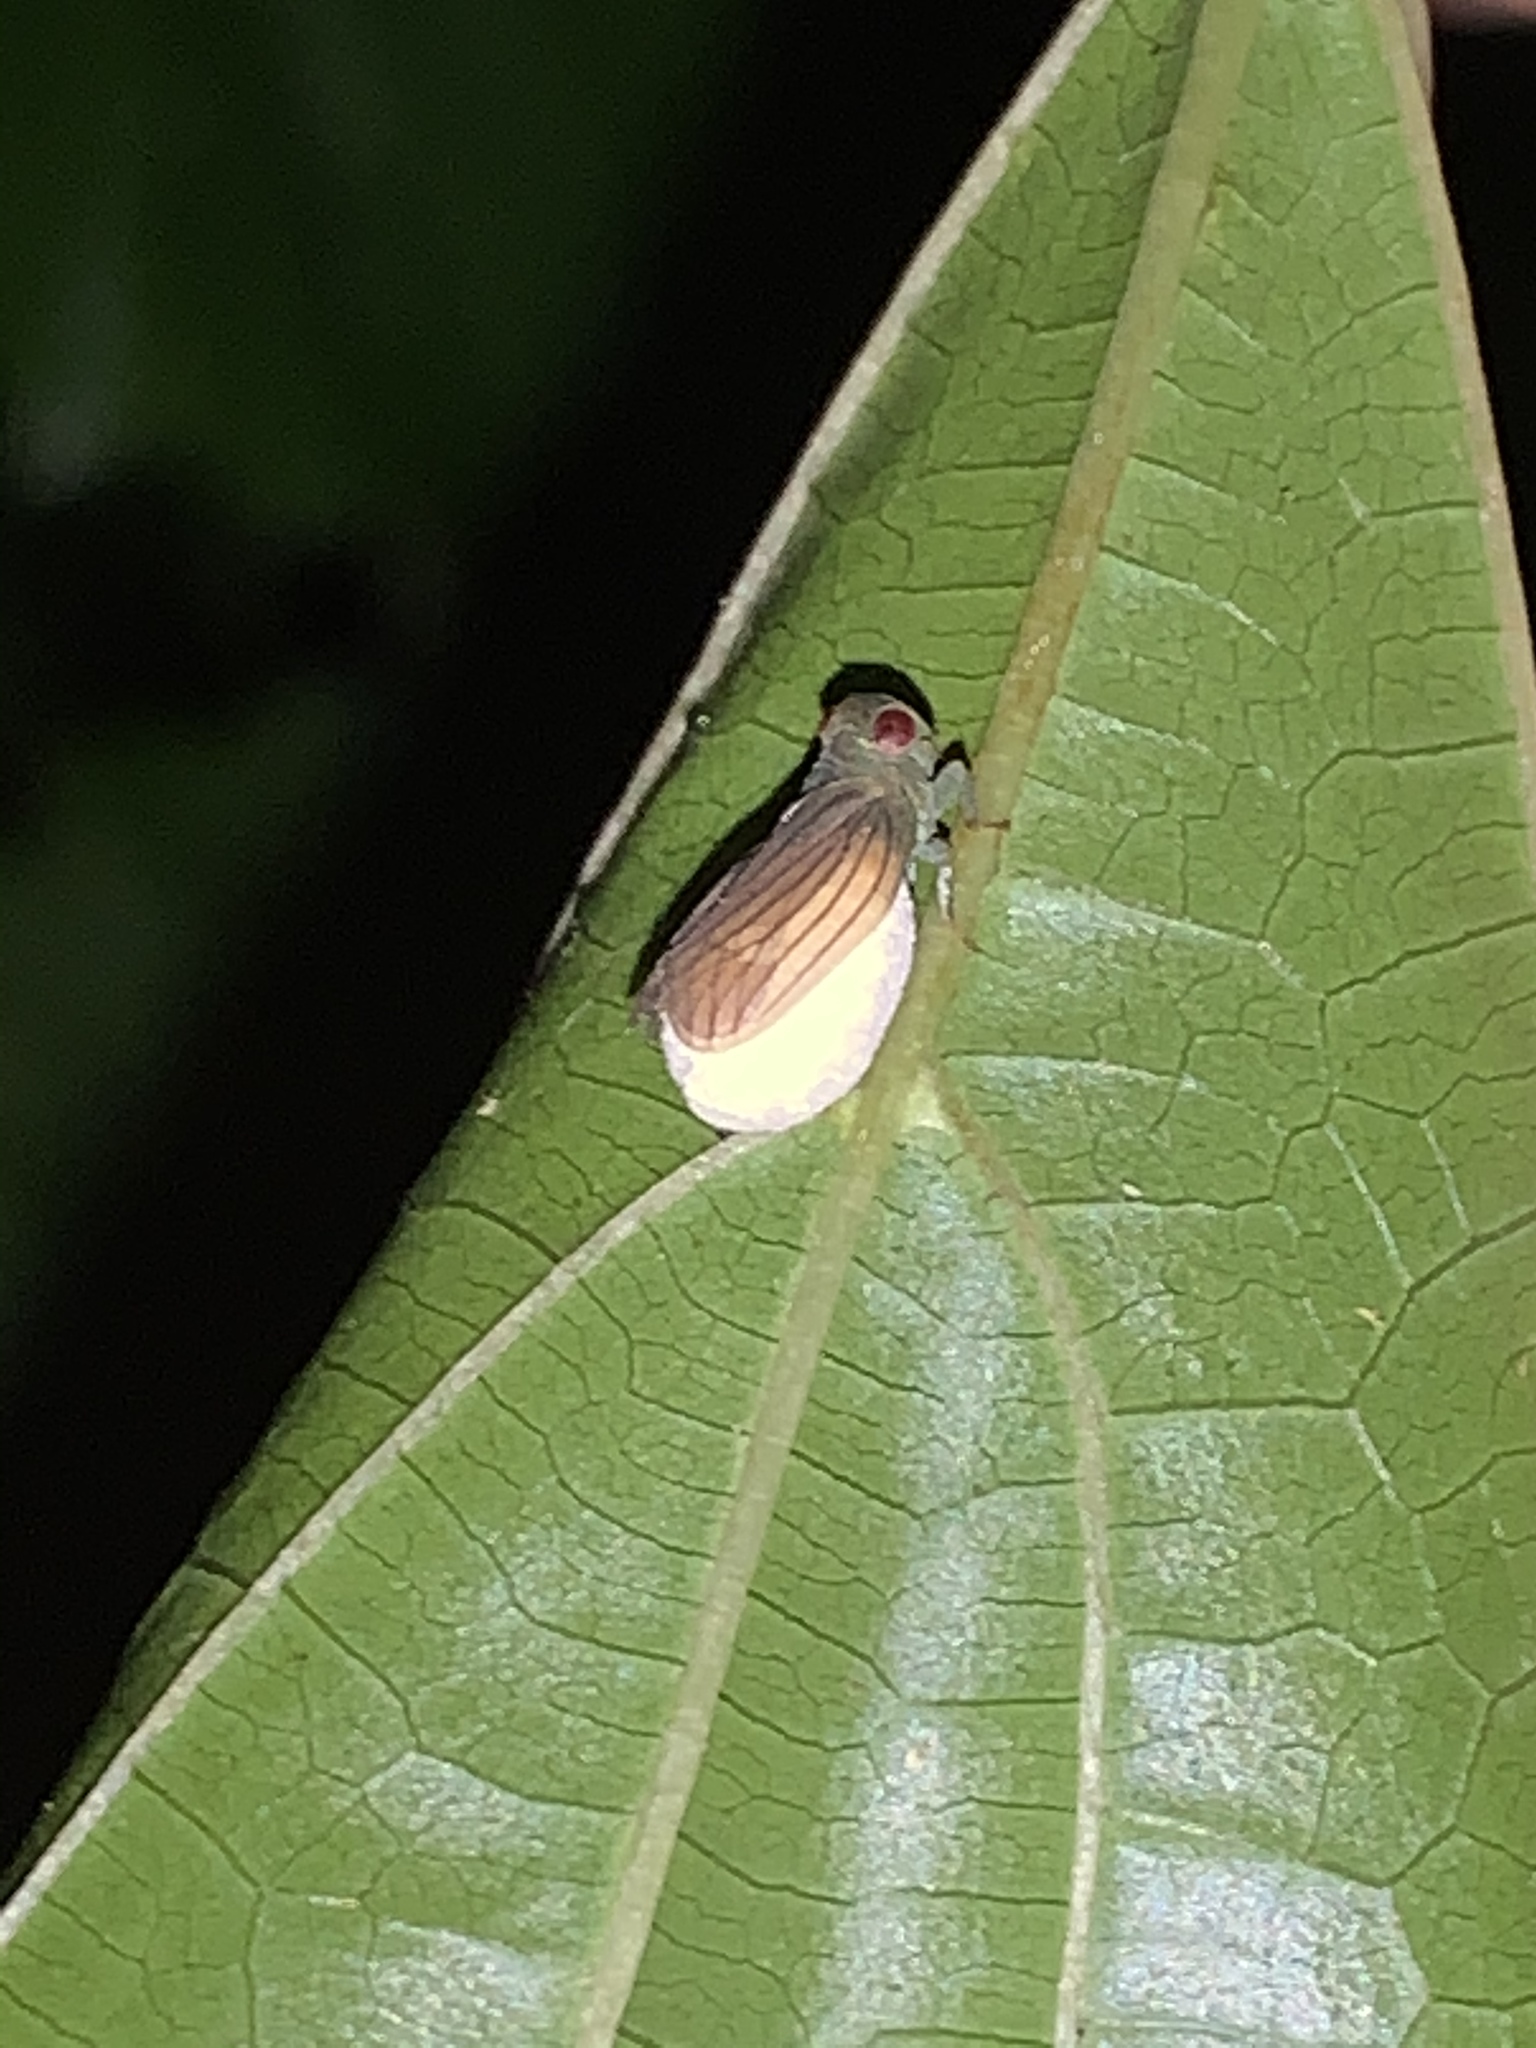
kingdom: Animalia
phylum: Arthropoda
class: Insecta
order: Hemiptera
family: Issidae
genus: Aplos
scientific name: Aplos simplex
